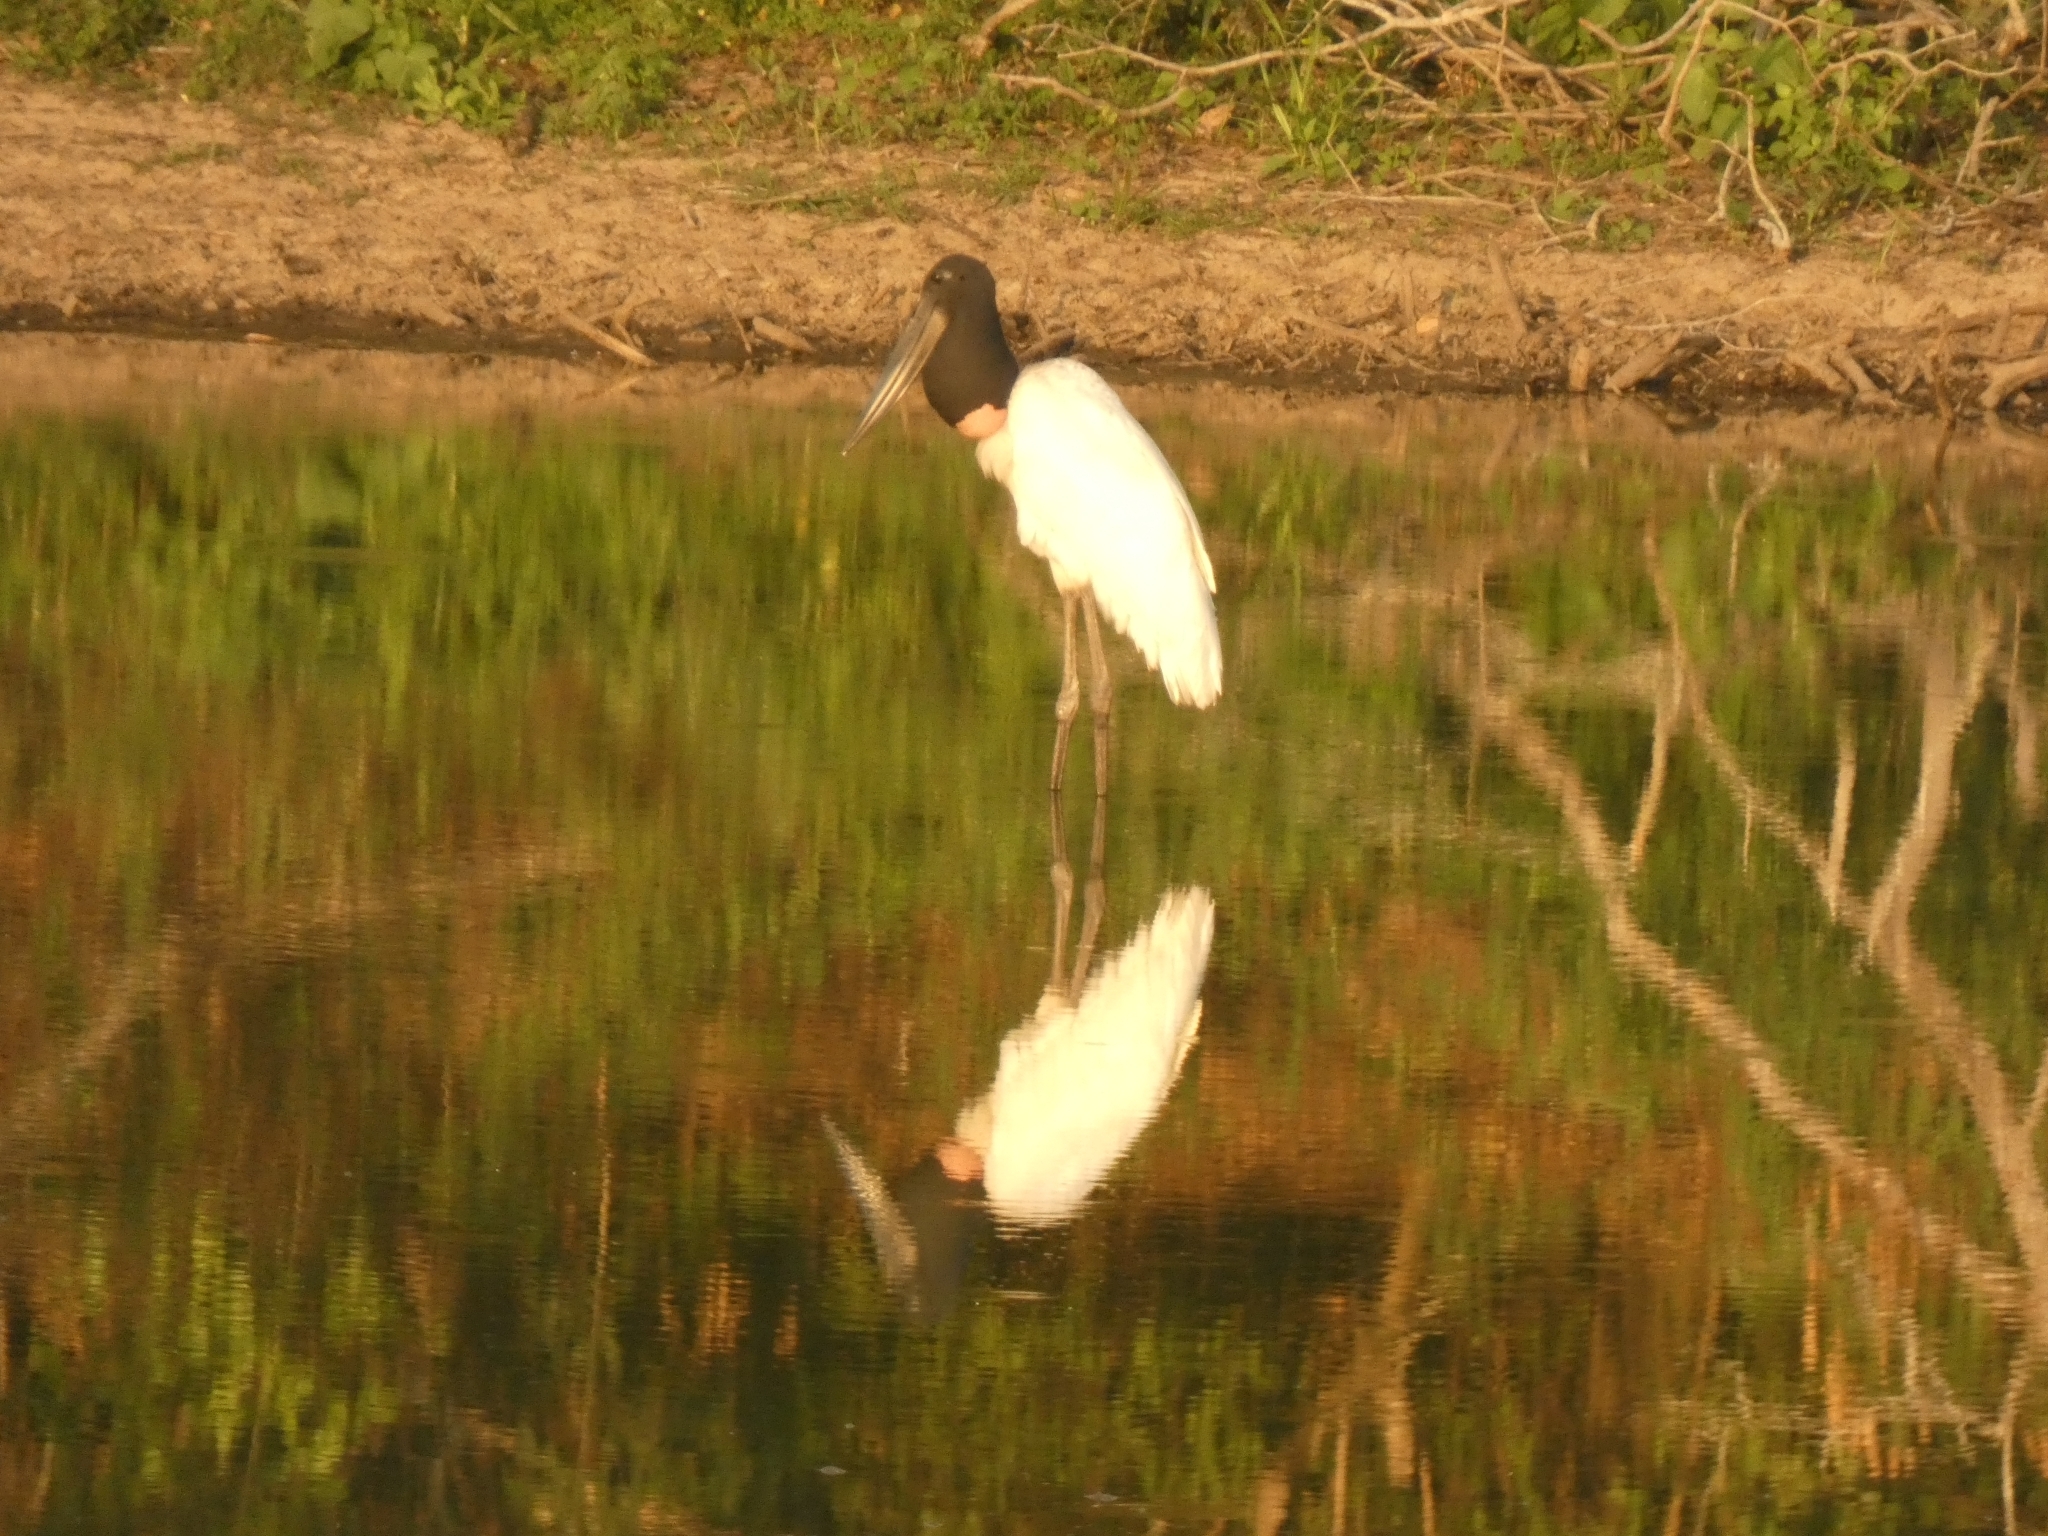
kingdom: Animalia
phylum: Chordata
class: Aves
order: Ciconiiformes
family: Ciconiidae
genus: Jabiru
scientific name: Jabiru mycteria
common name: Jabiru
